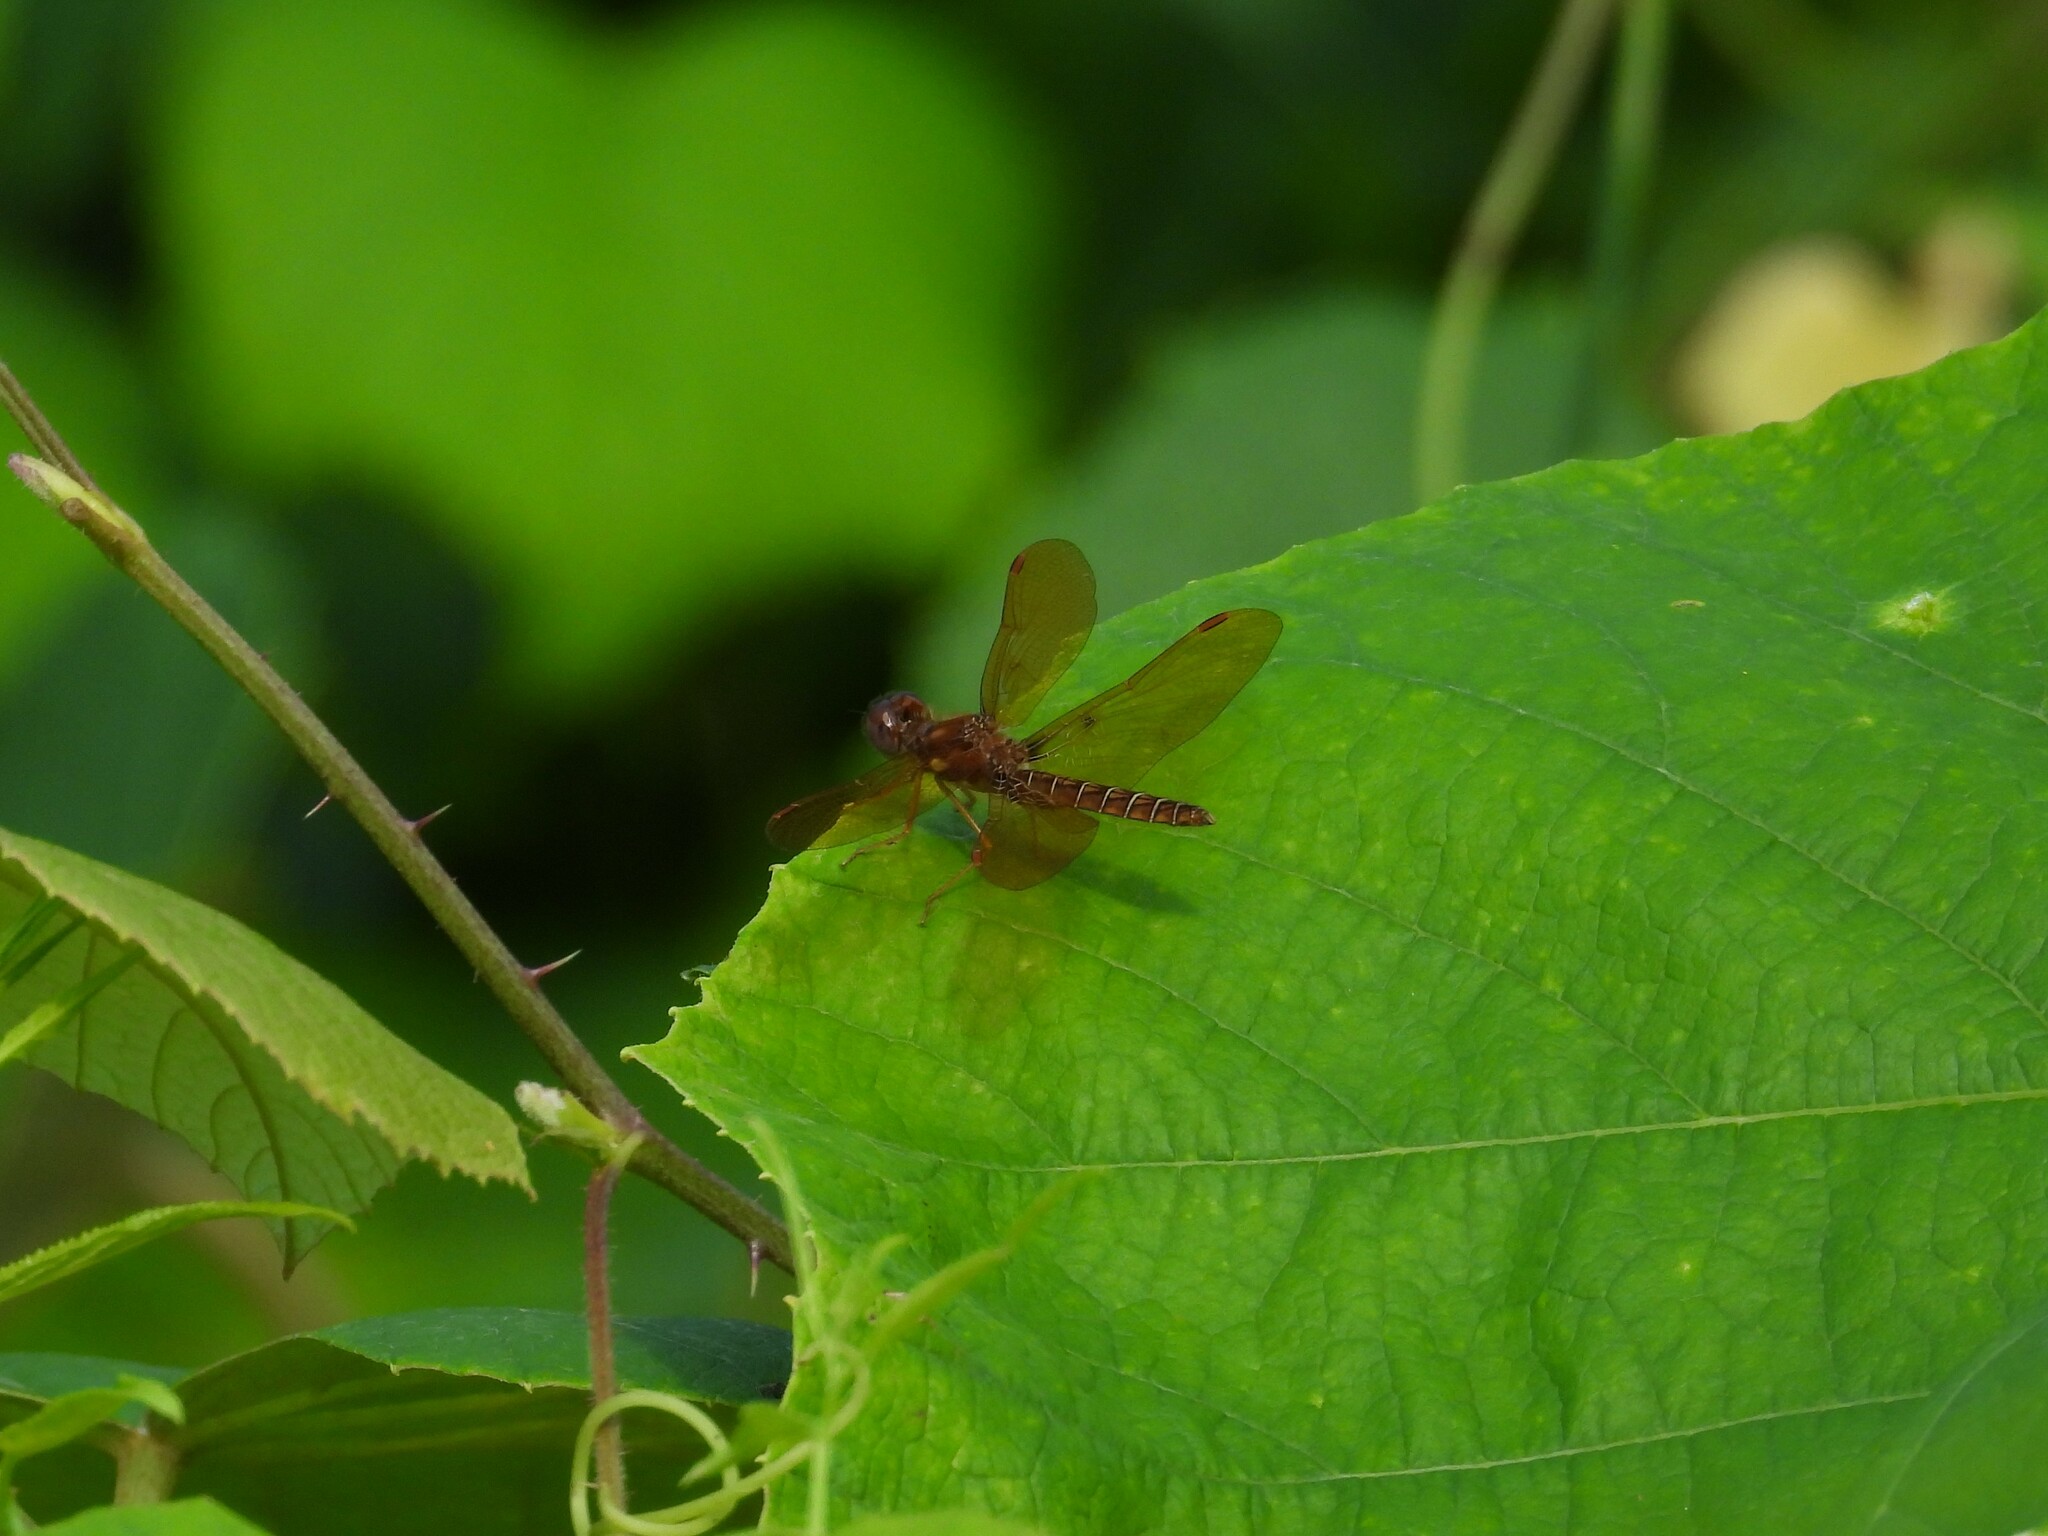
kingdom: Animalia
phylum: Arthropoda
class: Insecta
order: Odonata
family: Libellulidae
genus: Perithemis
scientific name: Perithemis tenera
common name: Eastern amberwing
